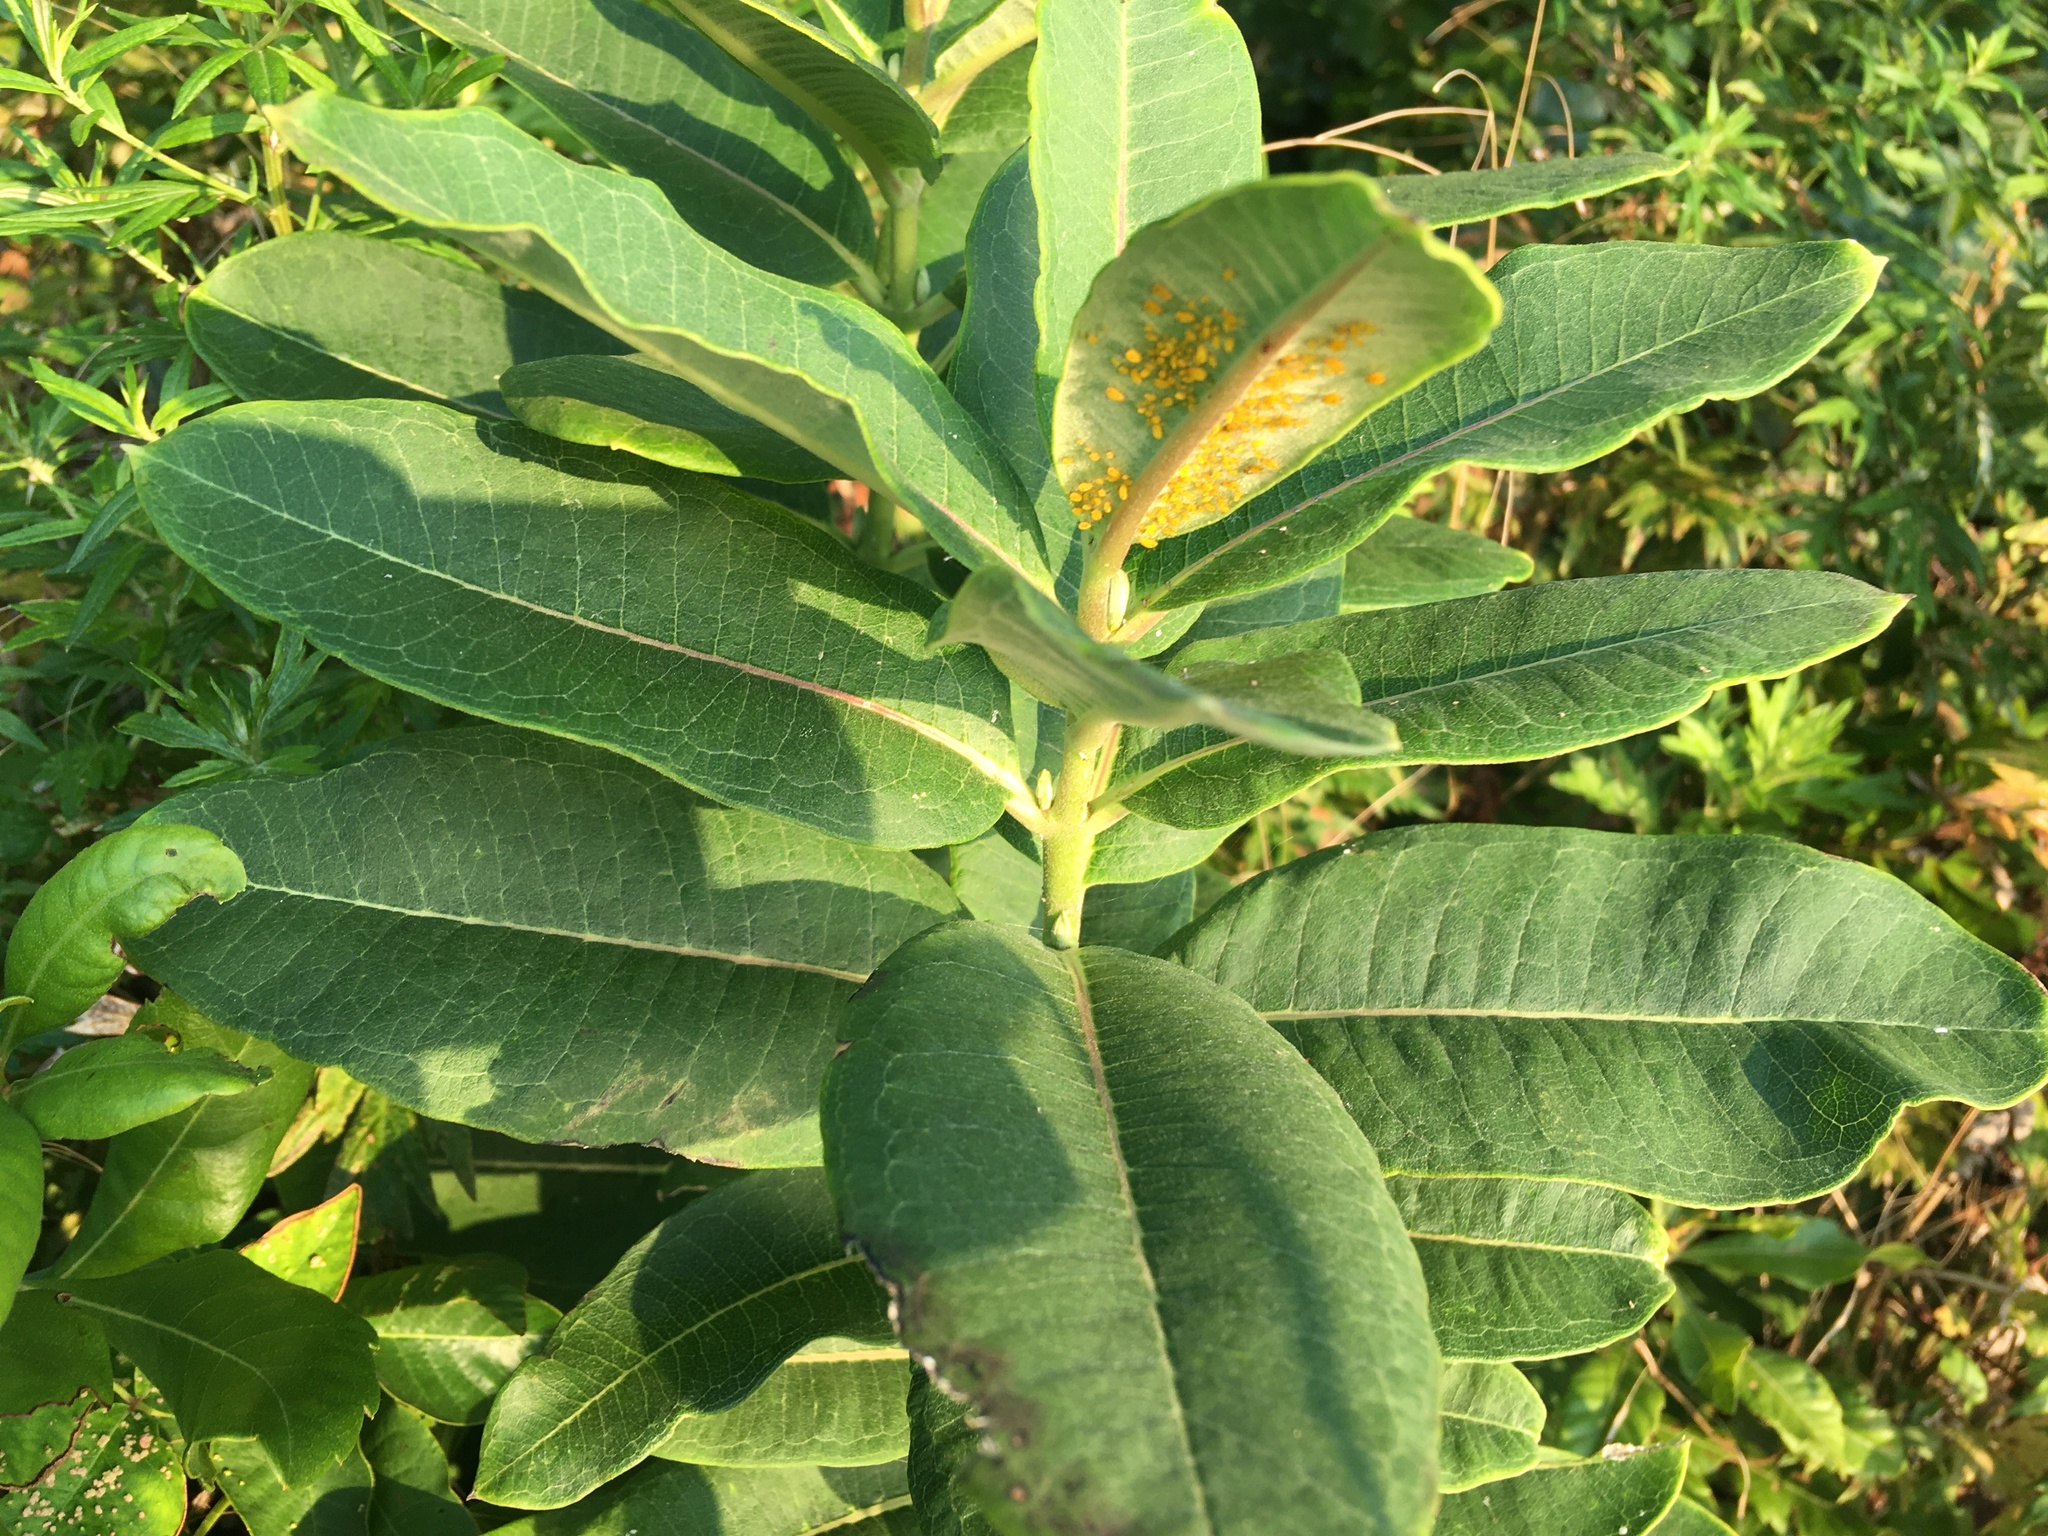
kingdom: Plantae
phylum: Tracheophyta
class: Magnoliopsida
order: Gentianales
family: Apocynaceae
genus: Asclepias
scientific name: Asclepias syriaca
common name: Common milkweed
